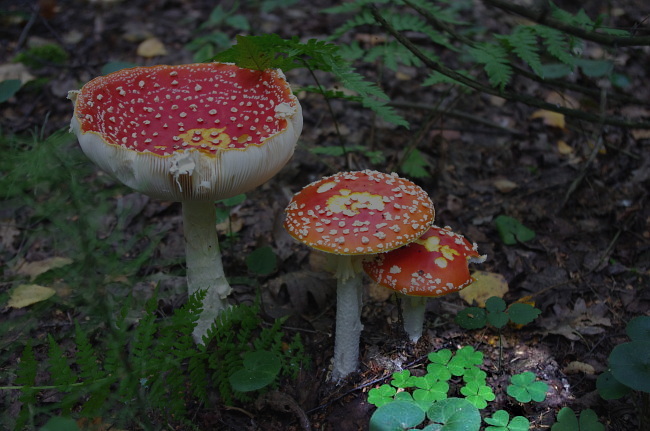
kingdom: Plantae
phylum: Tracheophyta
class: Magnoliopsida
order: Oxalidales
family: Oxalidaceae
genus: Oxalis
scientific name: Oxalis acetosella
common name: Wood-sorrel
